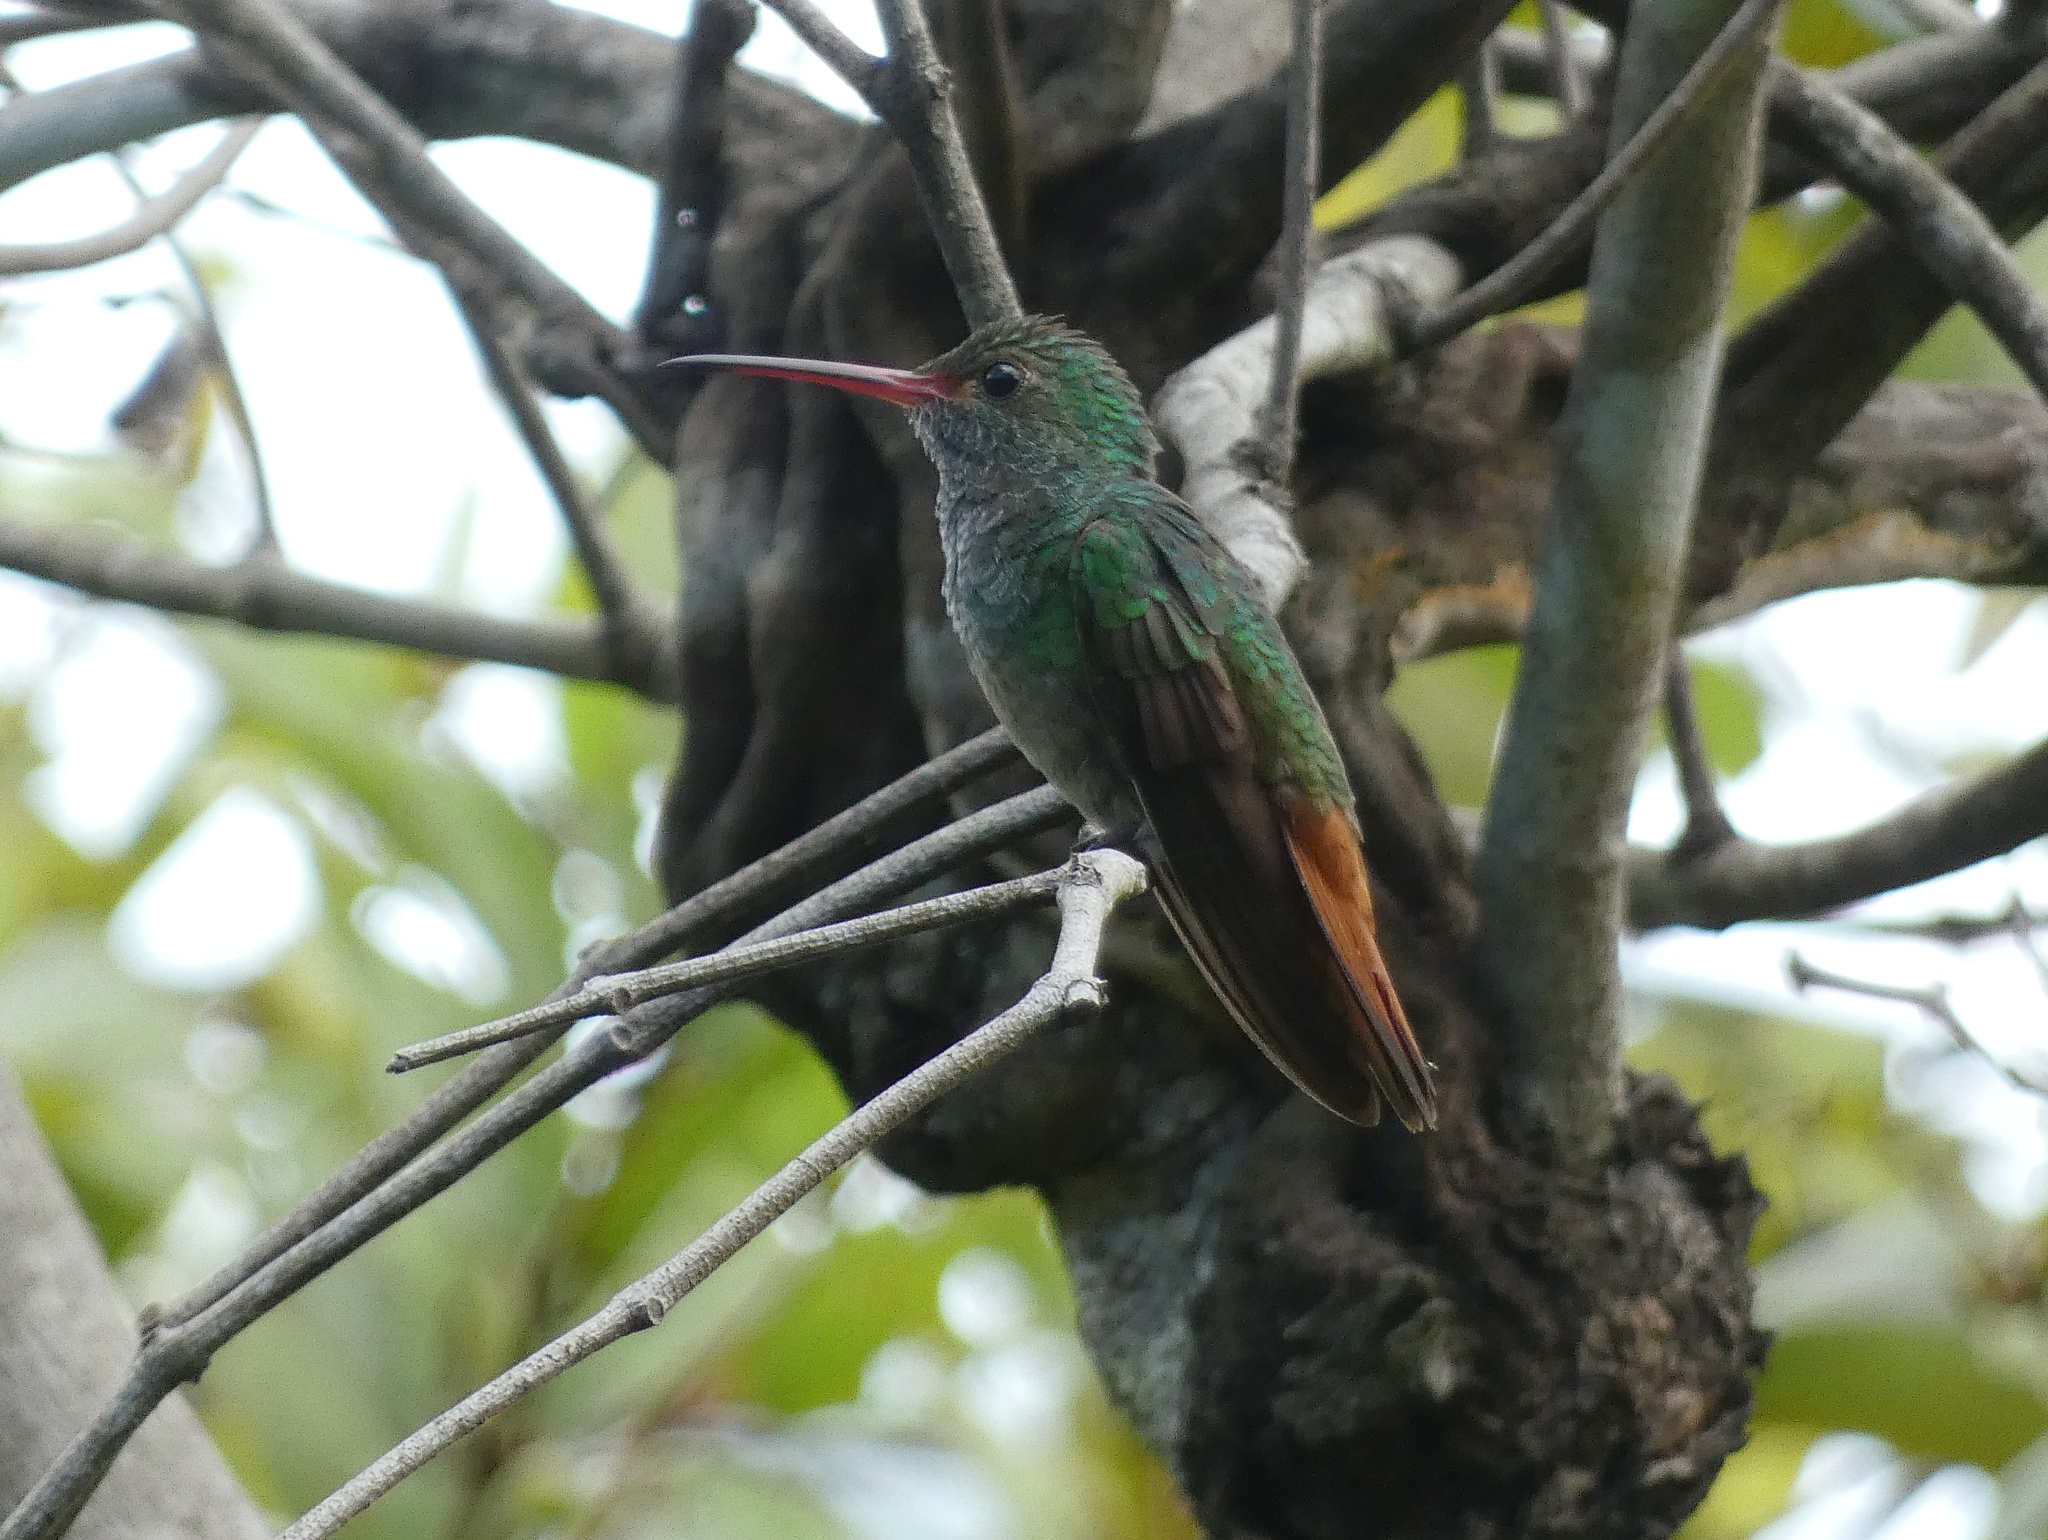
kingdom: Animalia
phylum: Chordata
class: Aves
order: Apodiformes
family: Trochilidae
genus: Amazilia
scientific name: Amazilia tzacatl
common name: Rufous-tailed hummingbird
